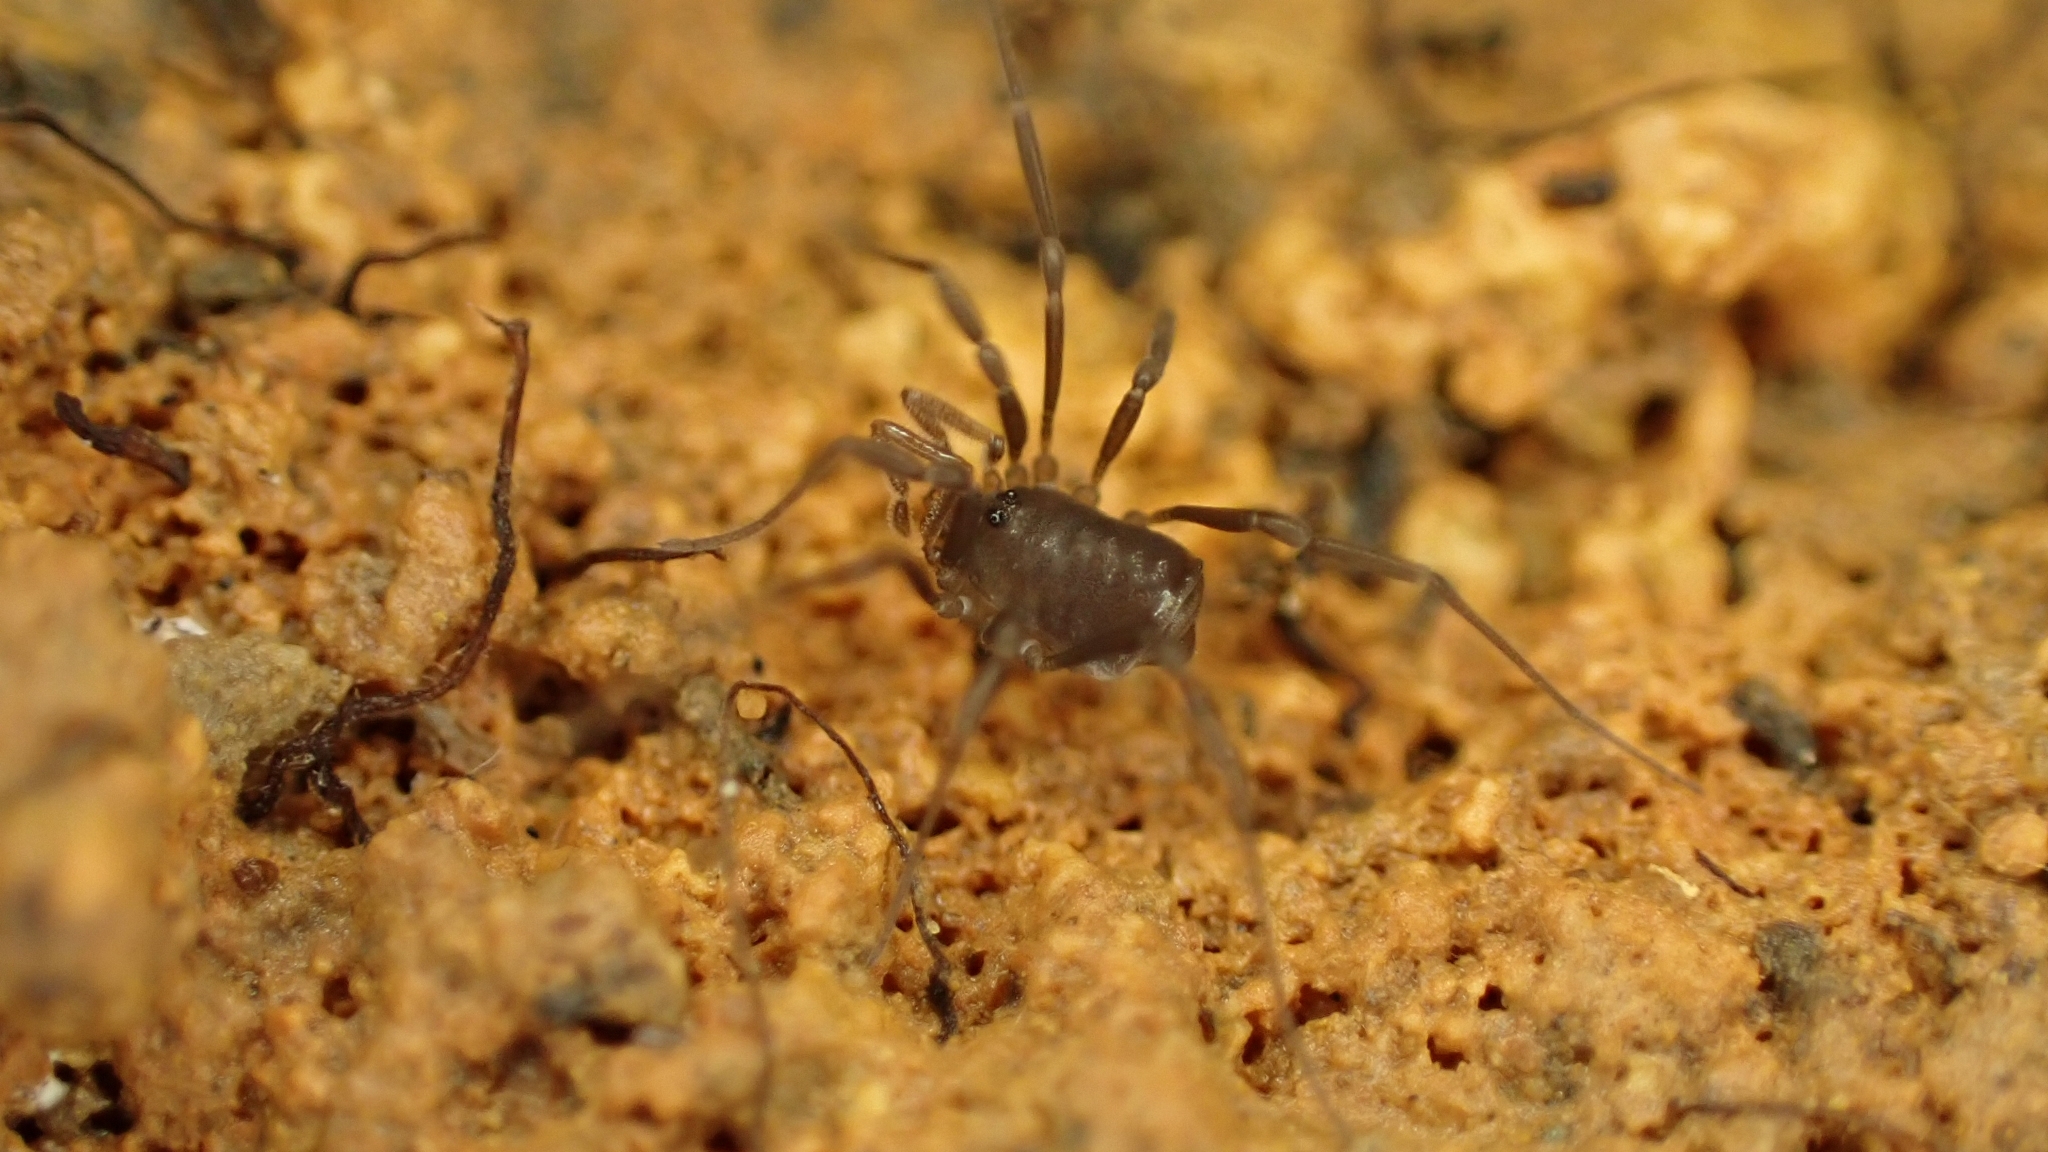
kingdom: Animalia
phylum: Arthropoda
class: Arachnida
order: Opiliones
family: Nemastomatidae
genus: Nemastomella
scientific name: Nemastomella hankiewiczii
